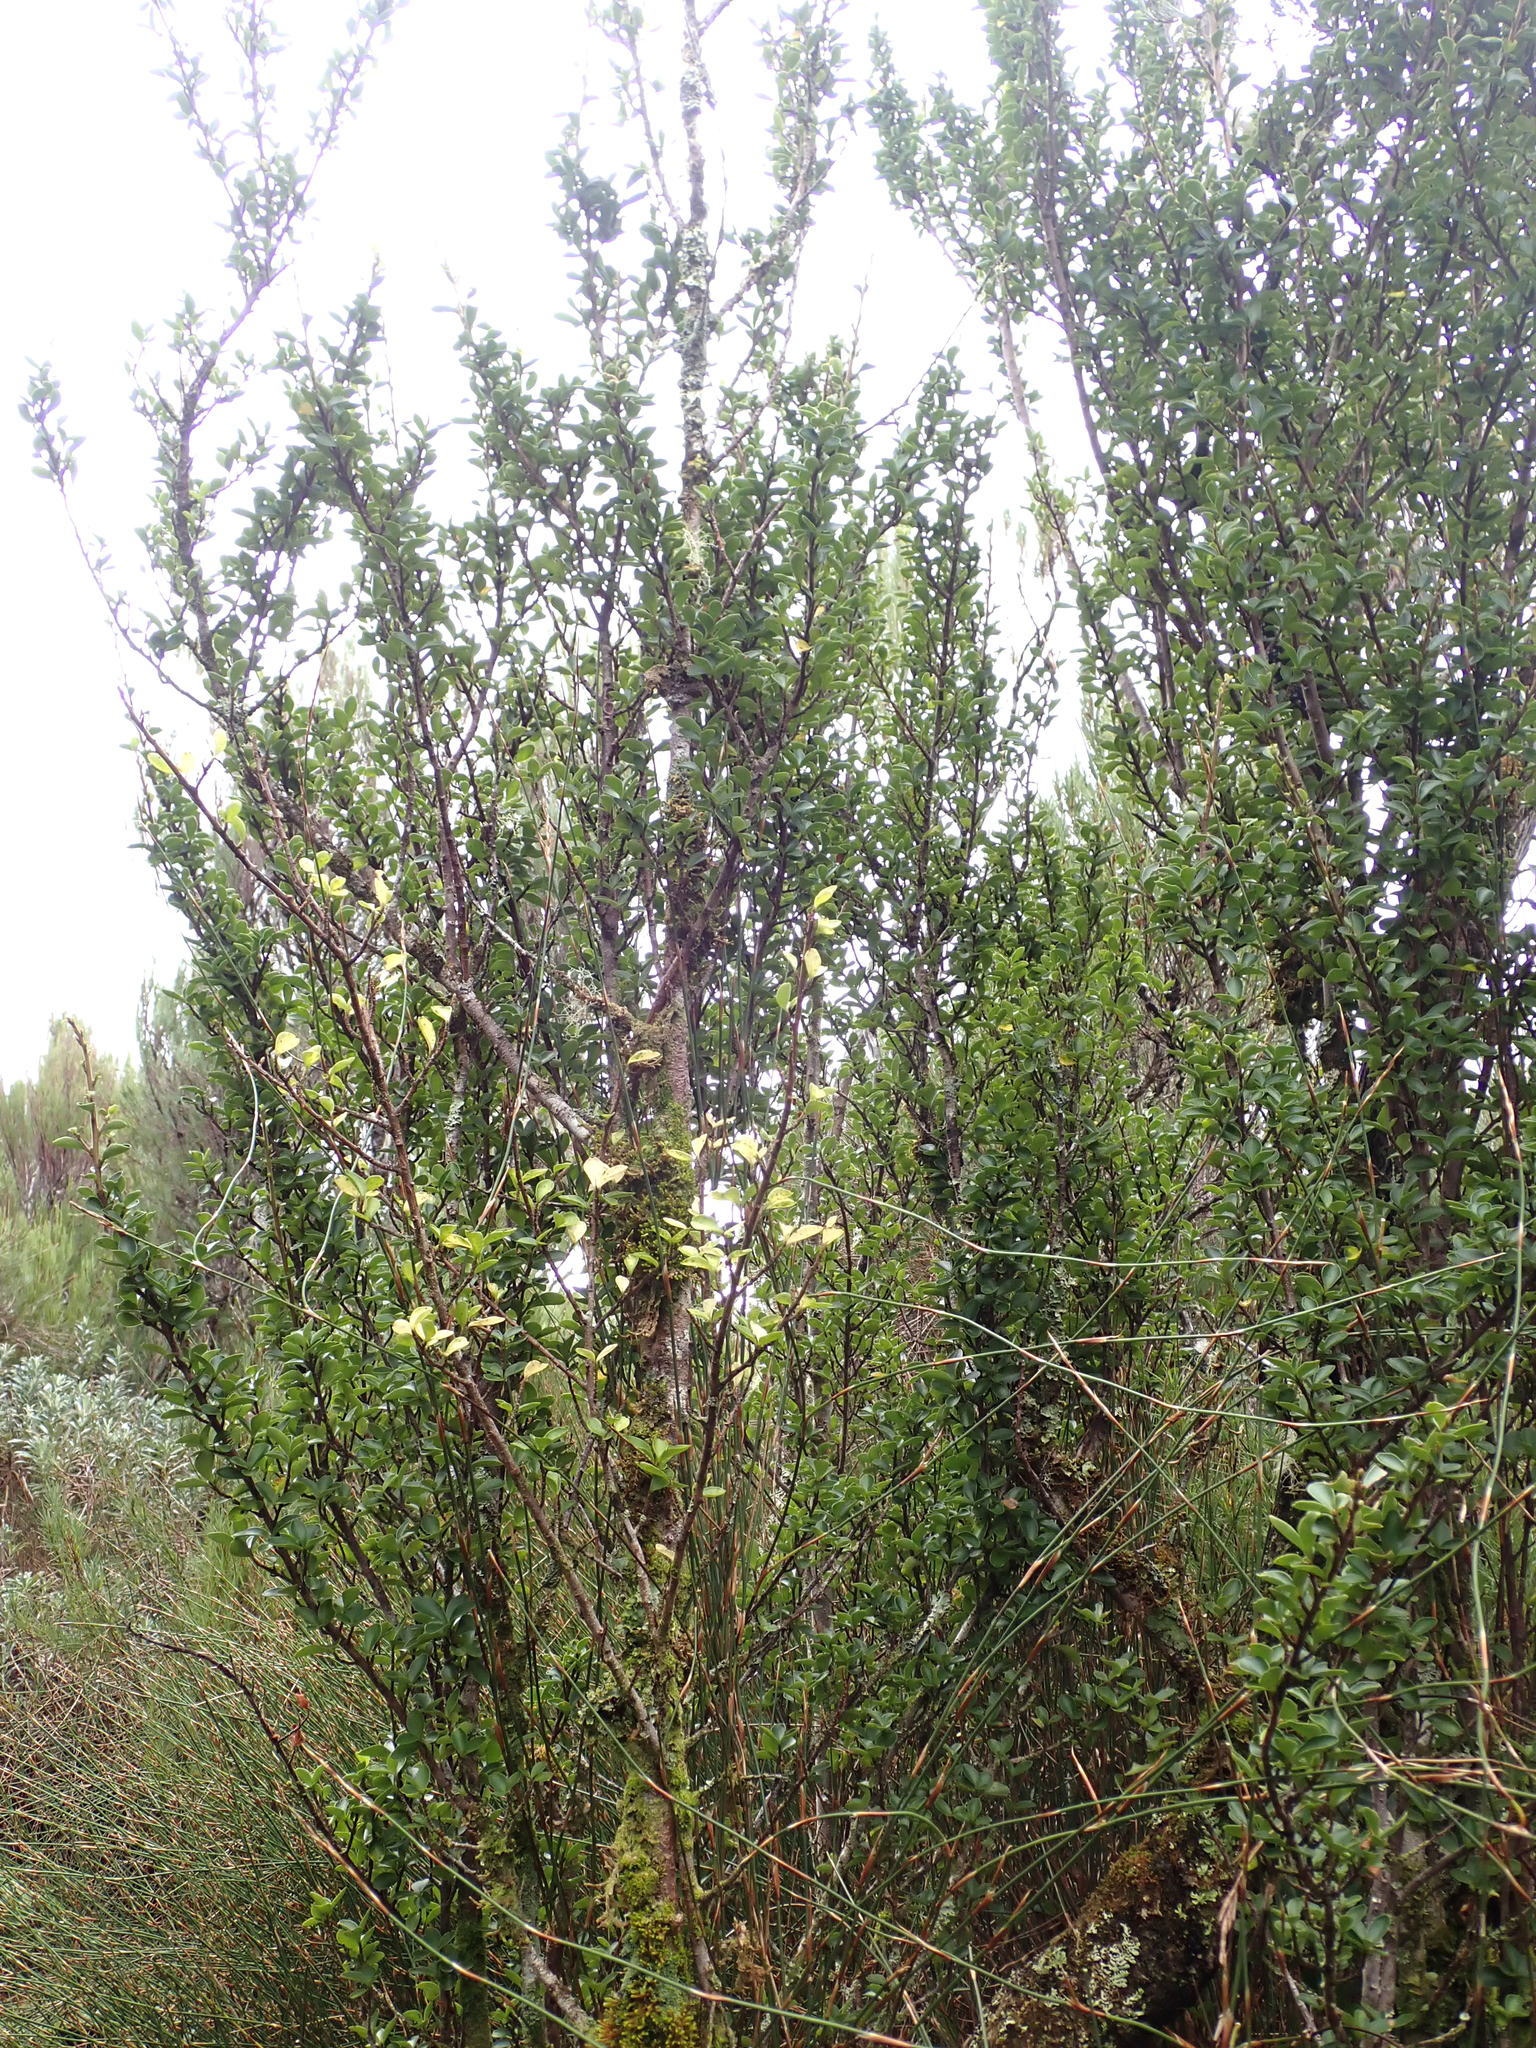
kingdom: Plantae
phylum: Tracheophyta
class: Magnoliopsida
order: Ericales
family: Primulaceae
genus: Myrsine
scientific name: Myrsine coxii
